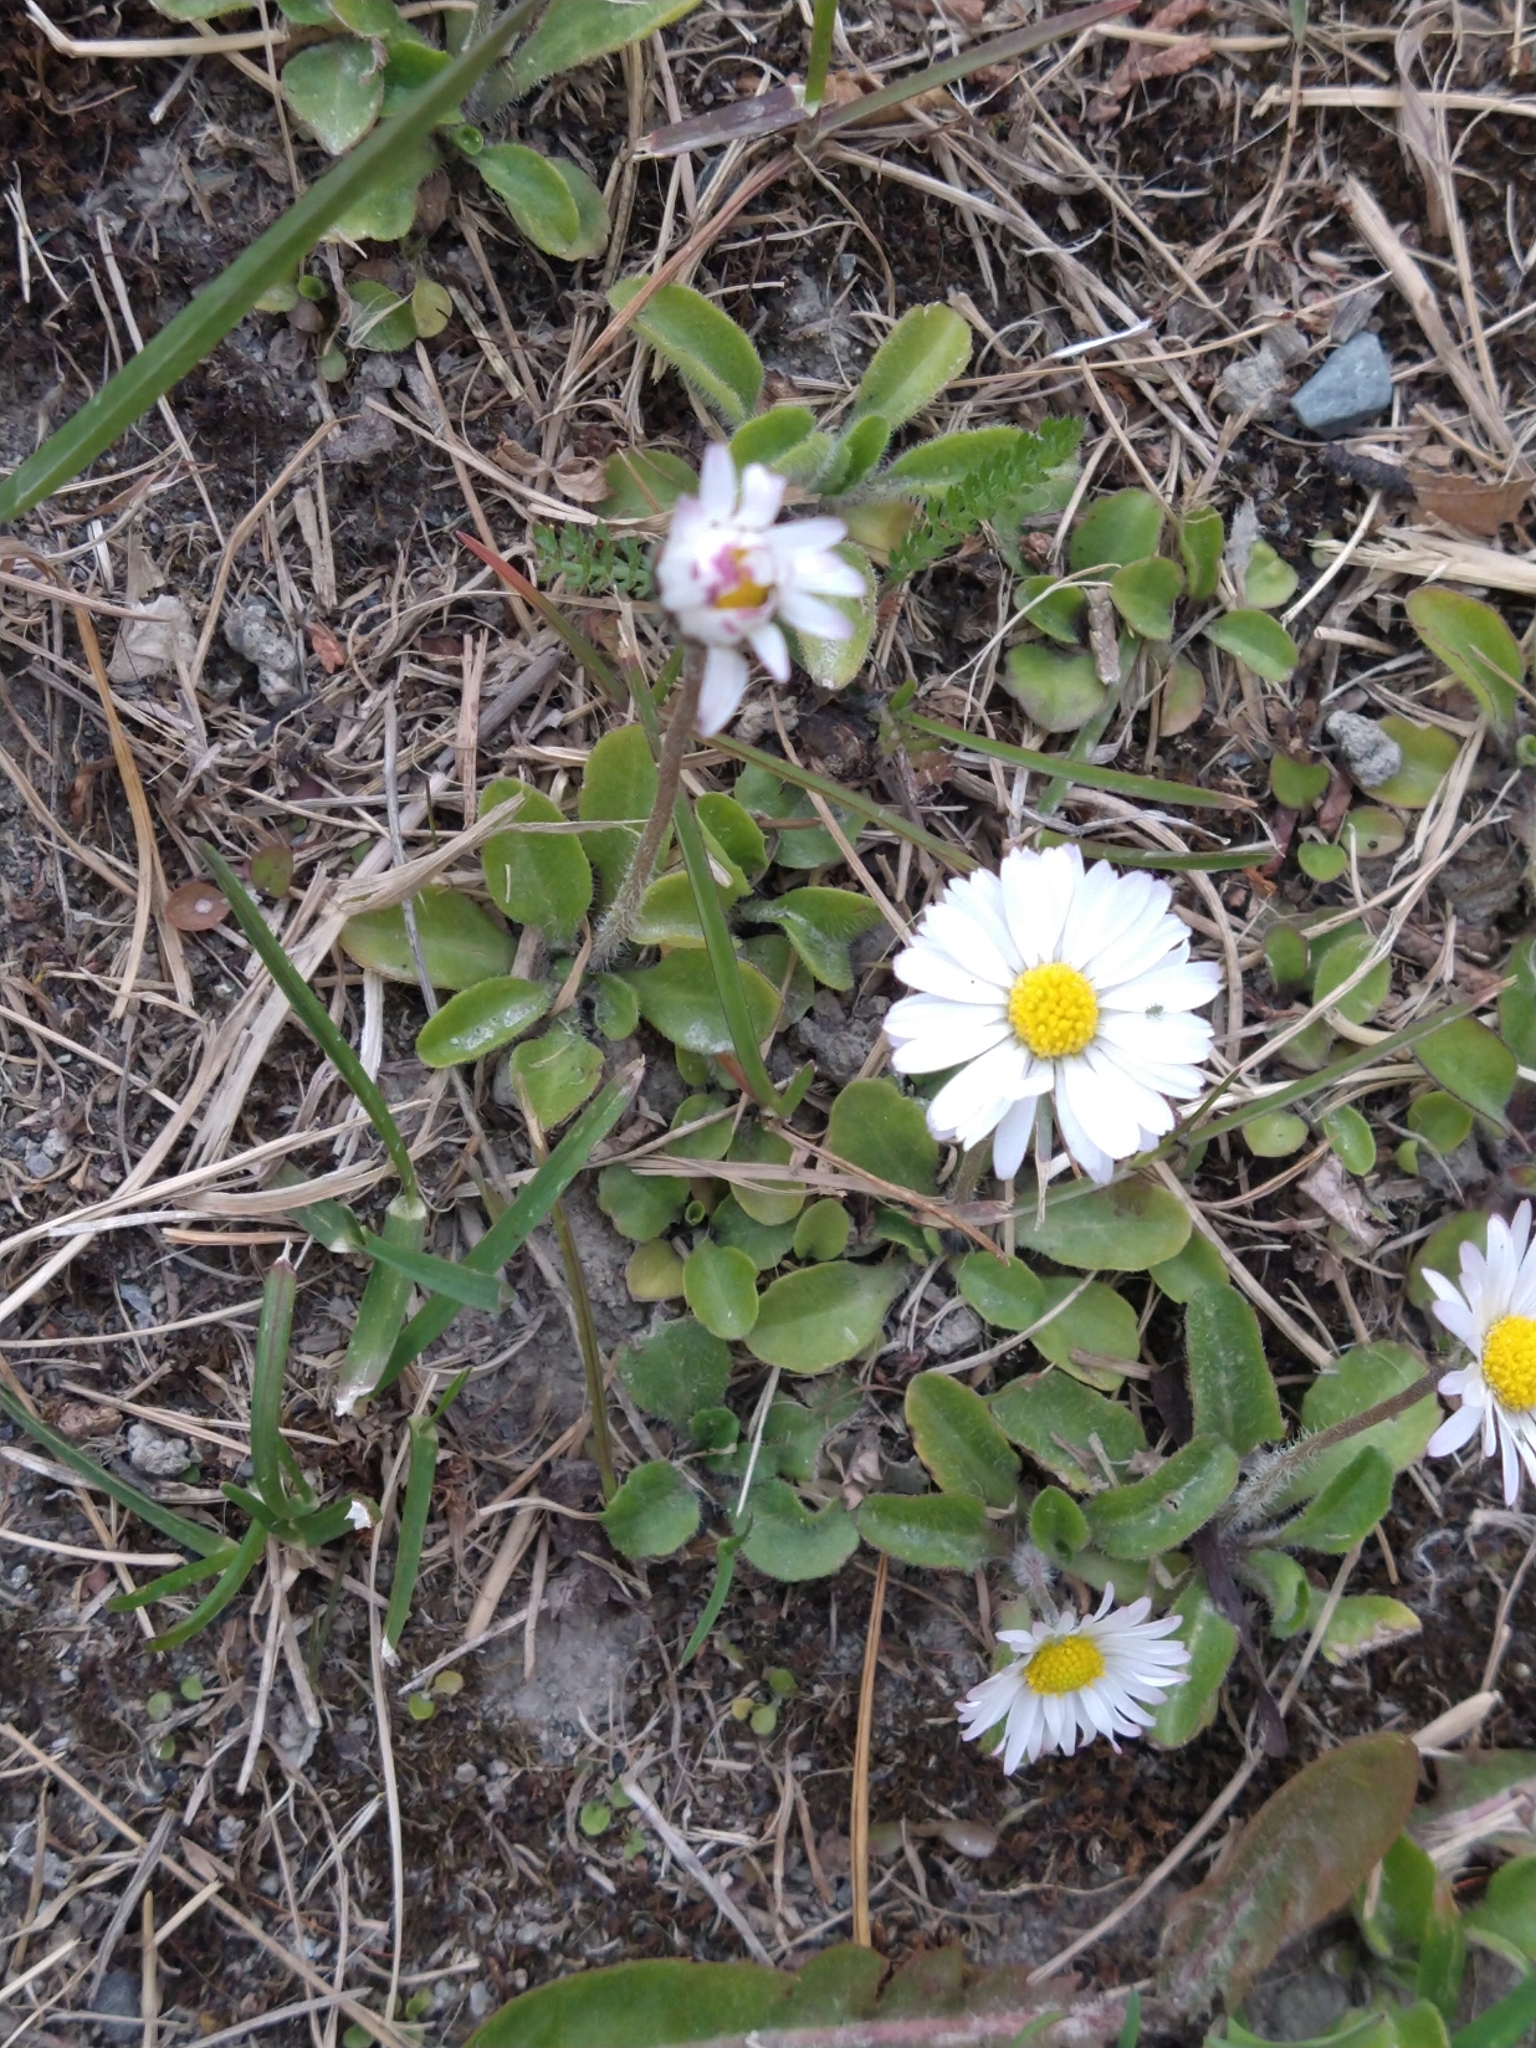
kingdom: Plantae
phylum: Tracheophyta
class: Magnoliopsida
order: Asterales
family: Asteraceae
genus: Bellis
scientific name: Bellis perennis
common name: Lawndaisy
